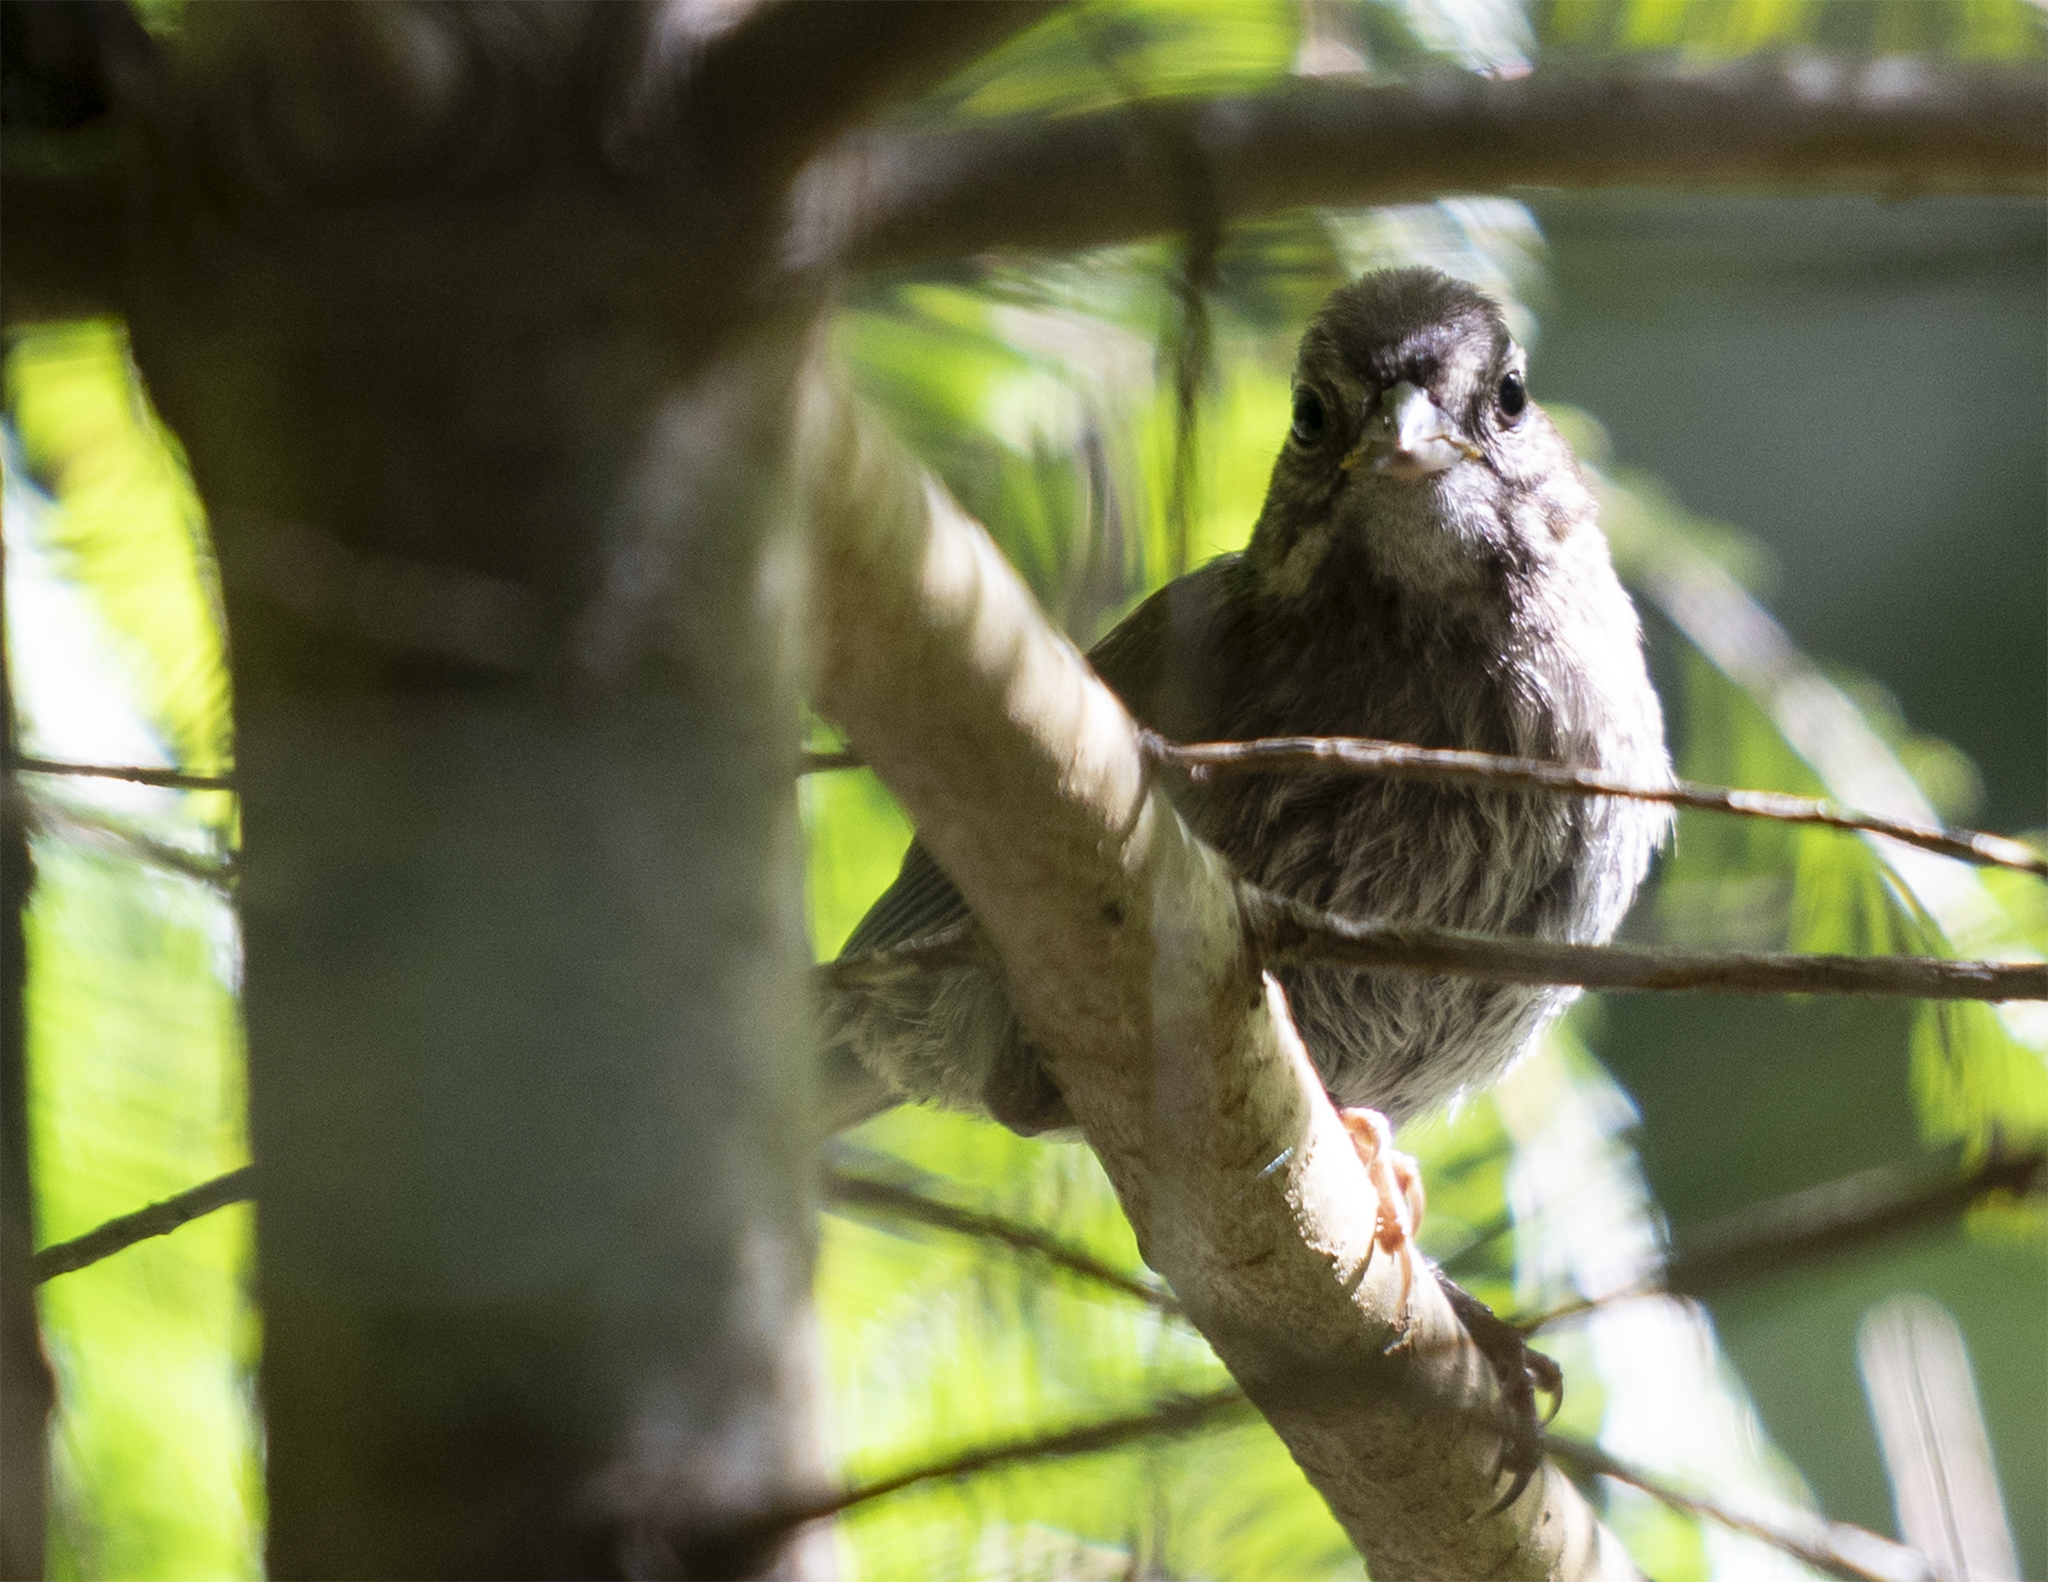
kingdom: Animalia
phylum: Chordata
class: Aves
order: Passeriformes
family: Passerellidae
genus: Melospiza
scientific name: Melospiza melodia
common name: Song sparrow
